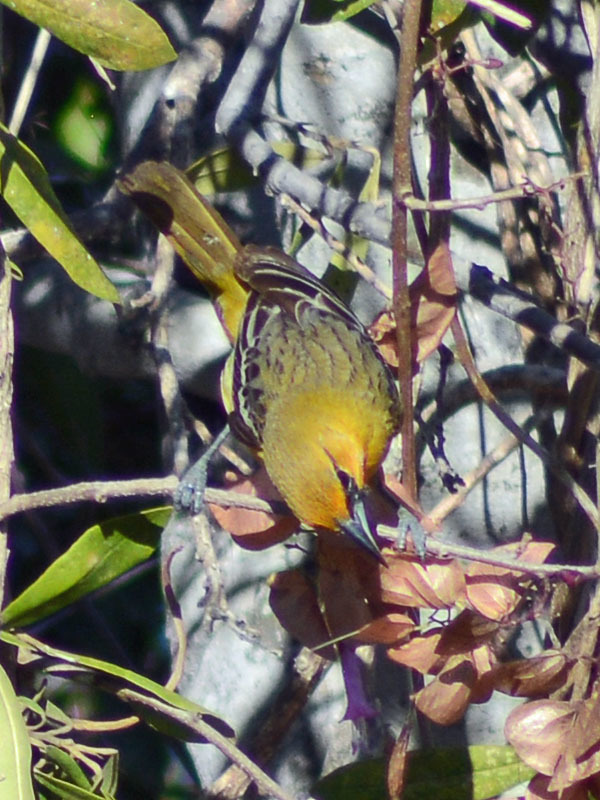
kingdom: Animalia
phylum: Chordata
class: Aves
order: Passeriformes
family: Icteridae
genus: Icterus
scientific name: Icterus pustulatus
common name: Streak-backed oriole
